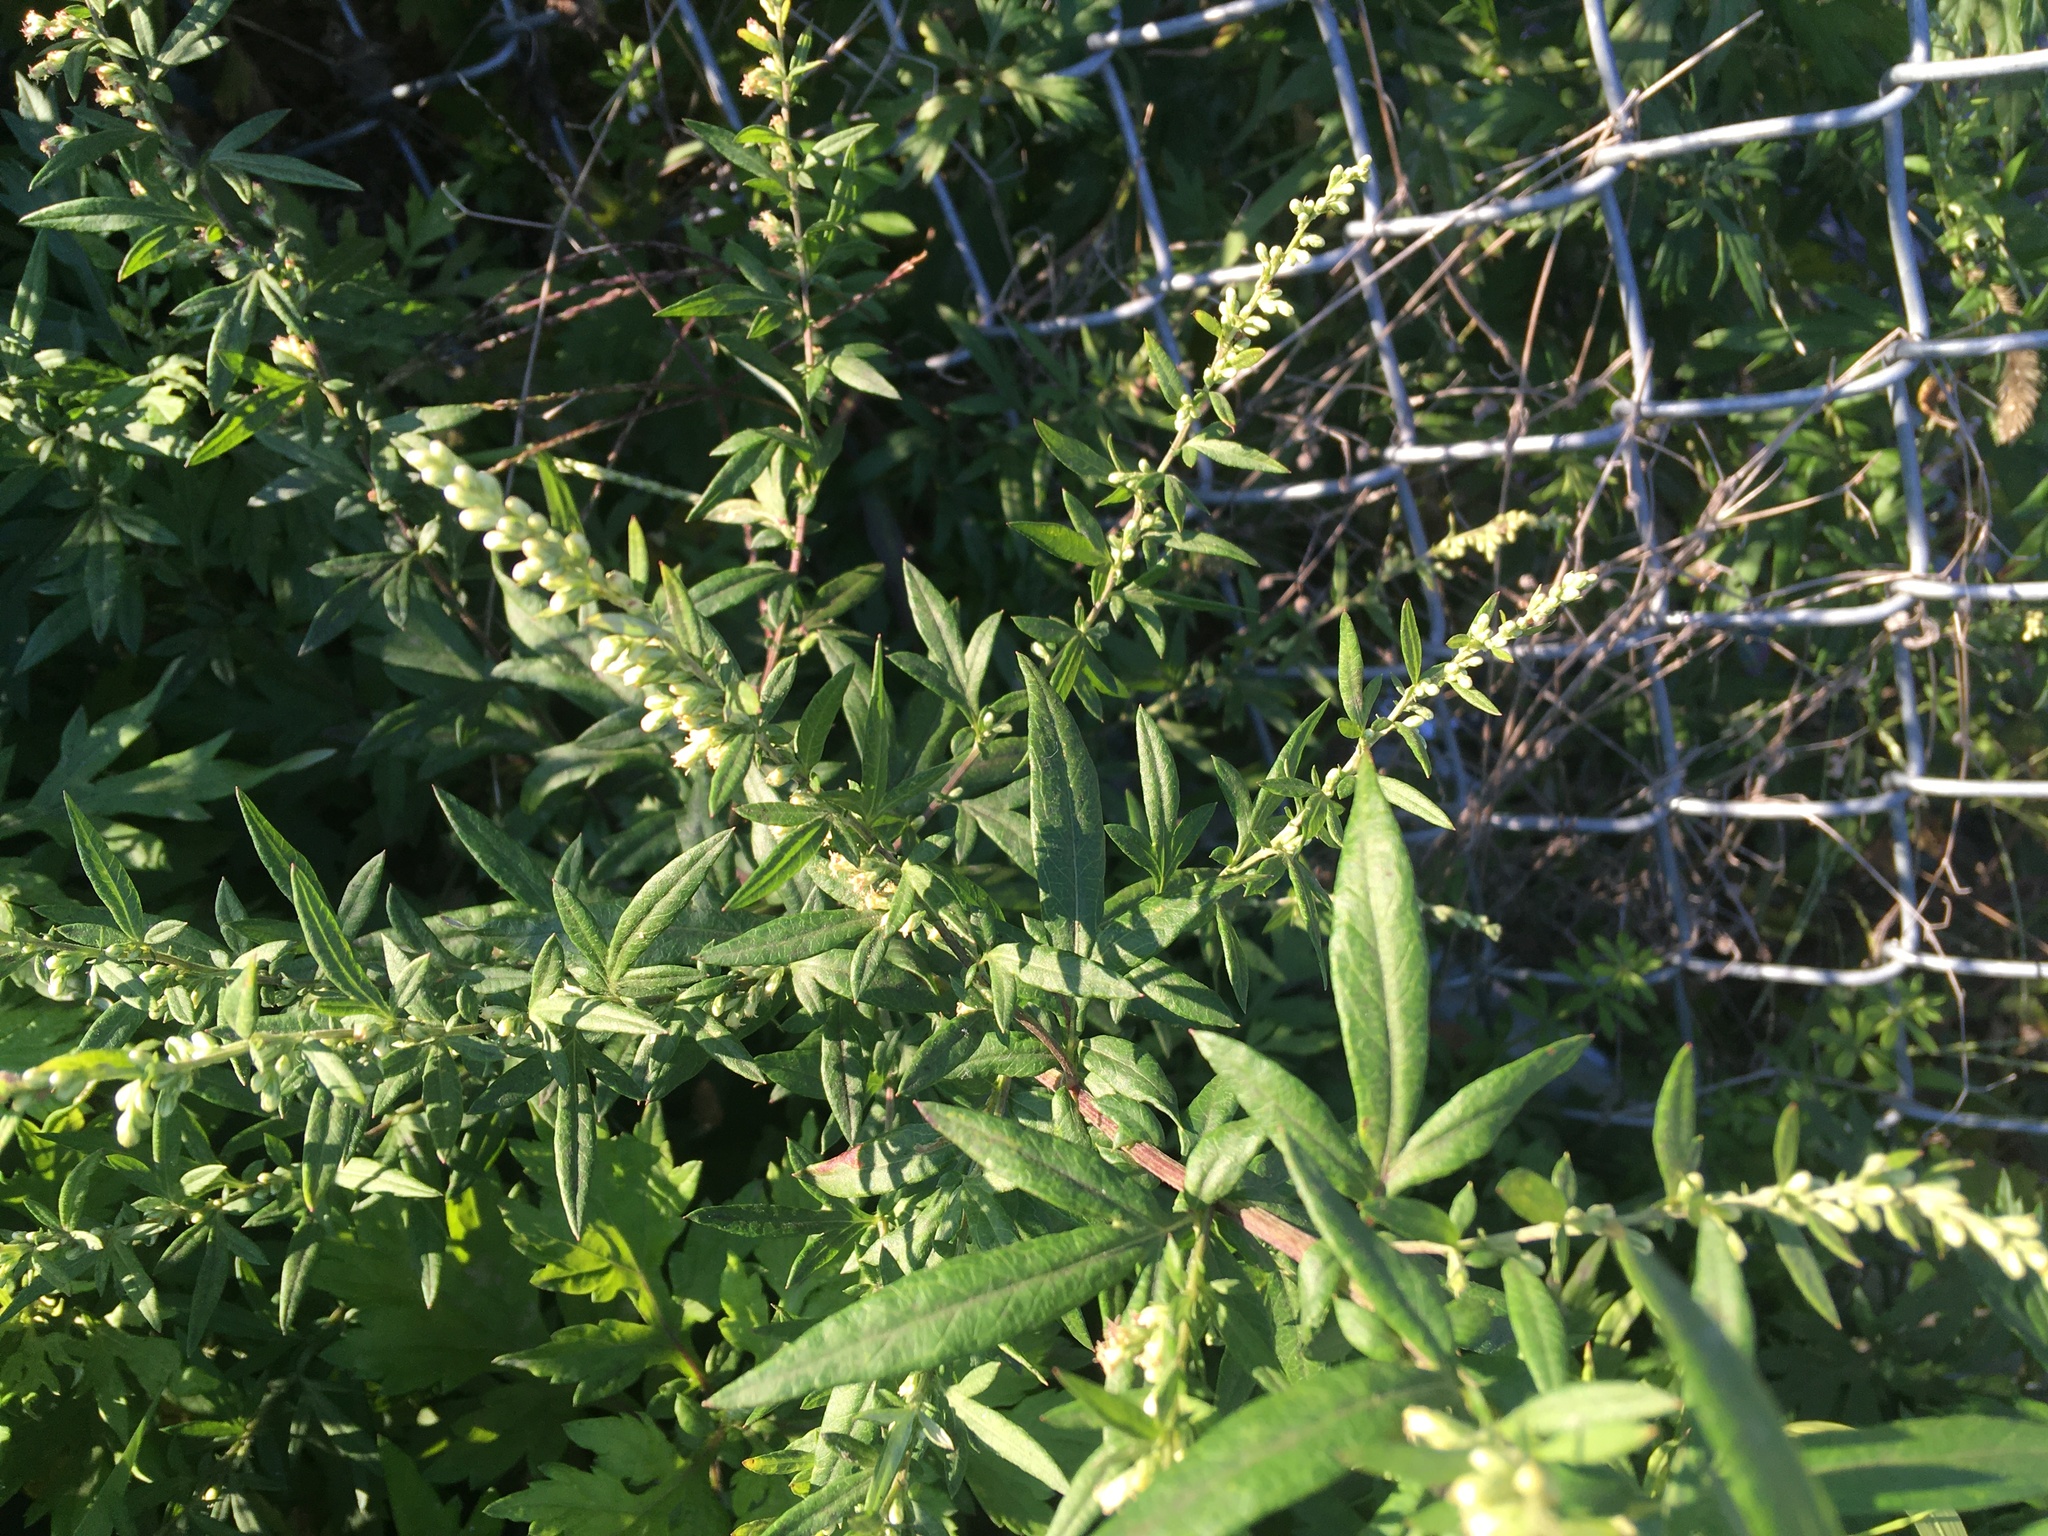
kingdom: Plantae
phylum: Tracheophyta
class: Magnoliopsida
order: Asterales
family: Asteraceae
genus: Artemisia
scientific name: Artemisia vulgaris
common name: Mugwort
